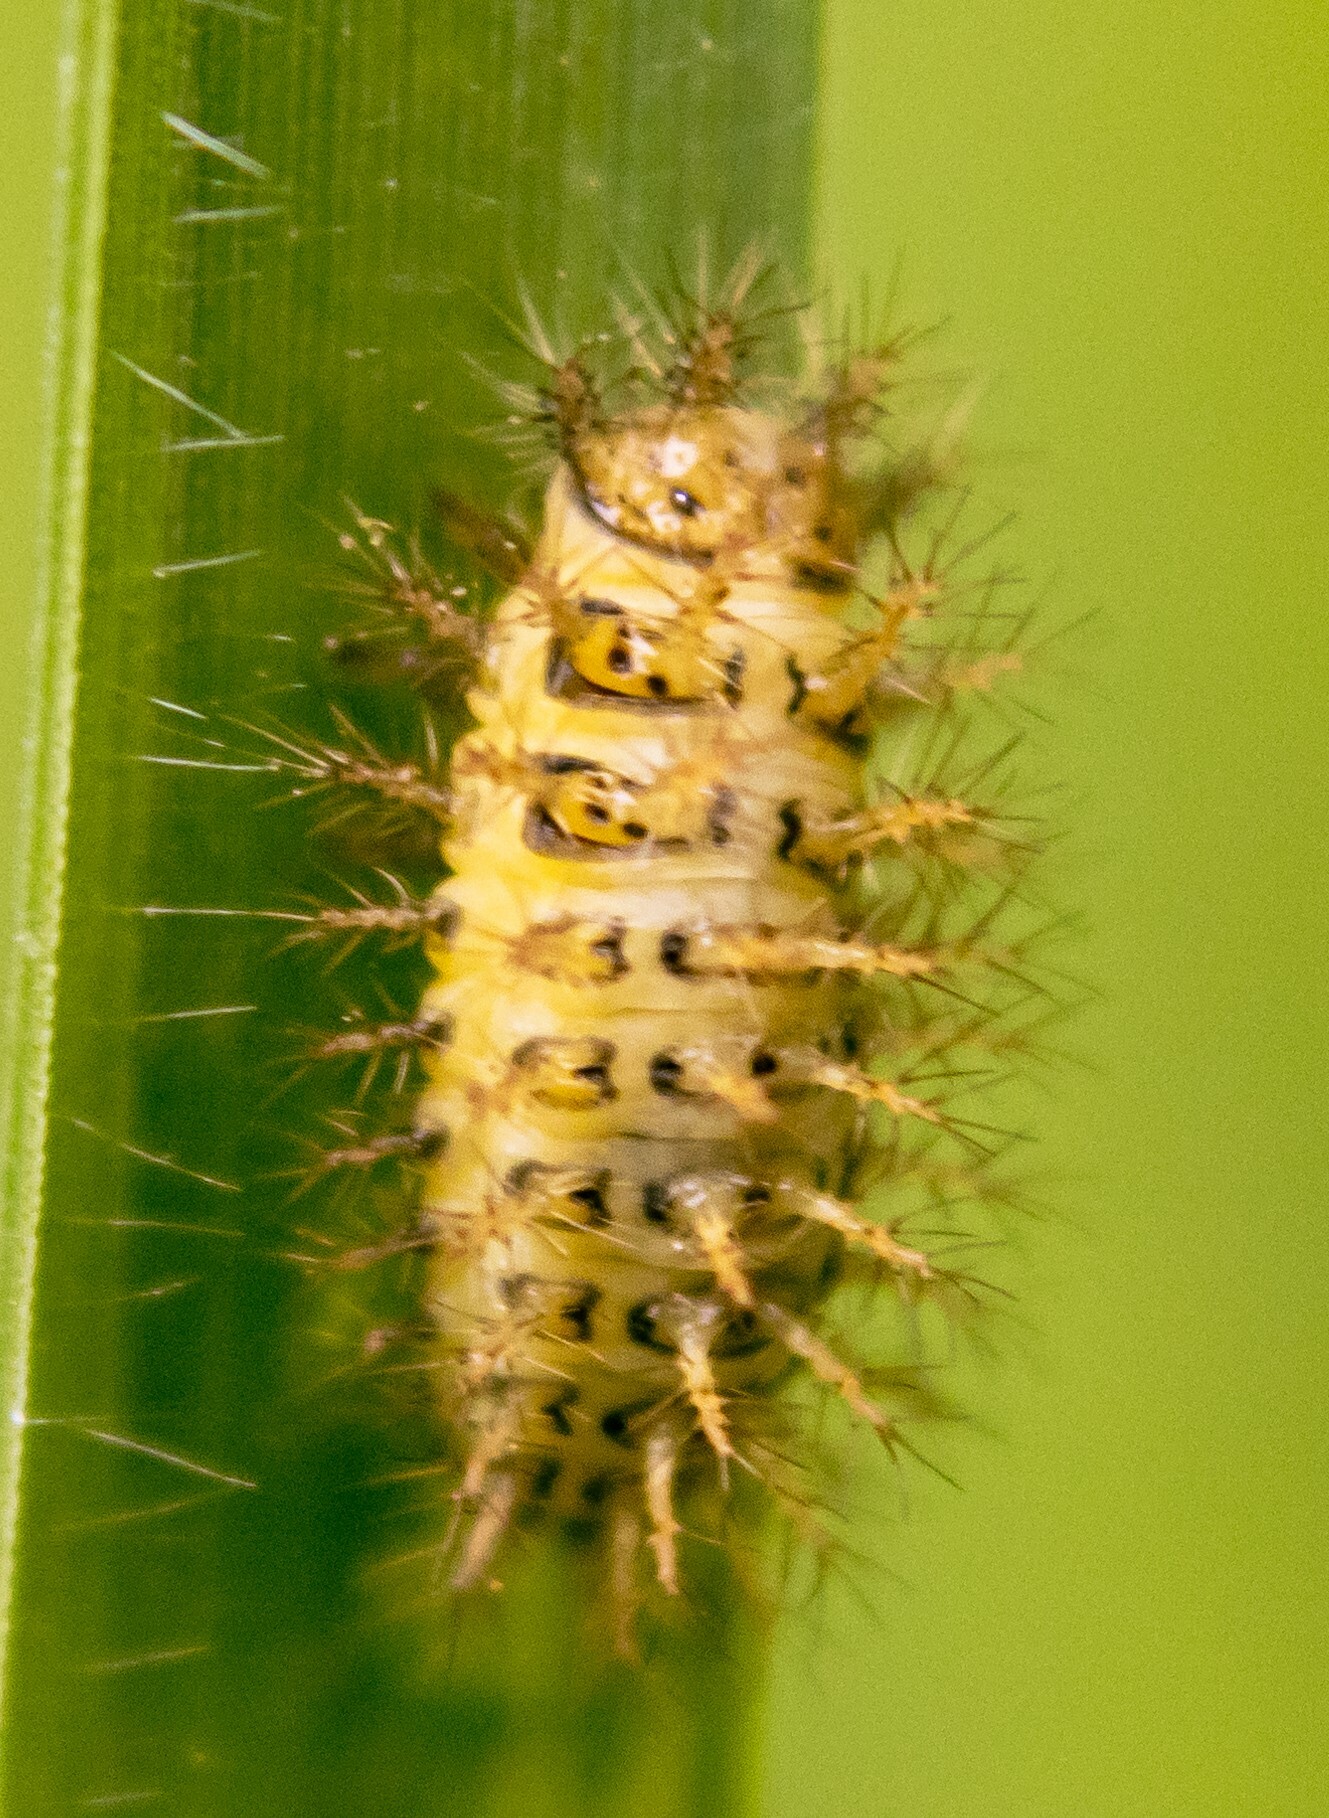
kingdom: Animalia
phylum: Arthropoda
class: Insecta
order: Coleoptera
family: Coccinellidae
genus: Subcoccinella
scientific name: Subcoccinella vigintiquatuorpunctata
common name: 24-spot ladybird
